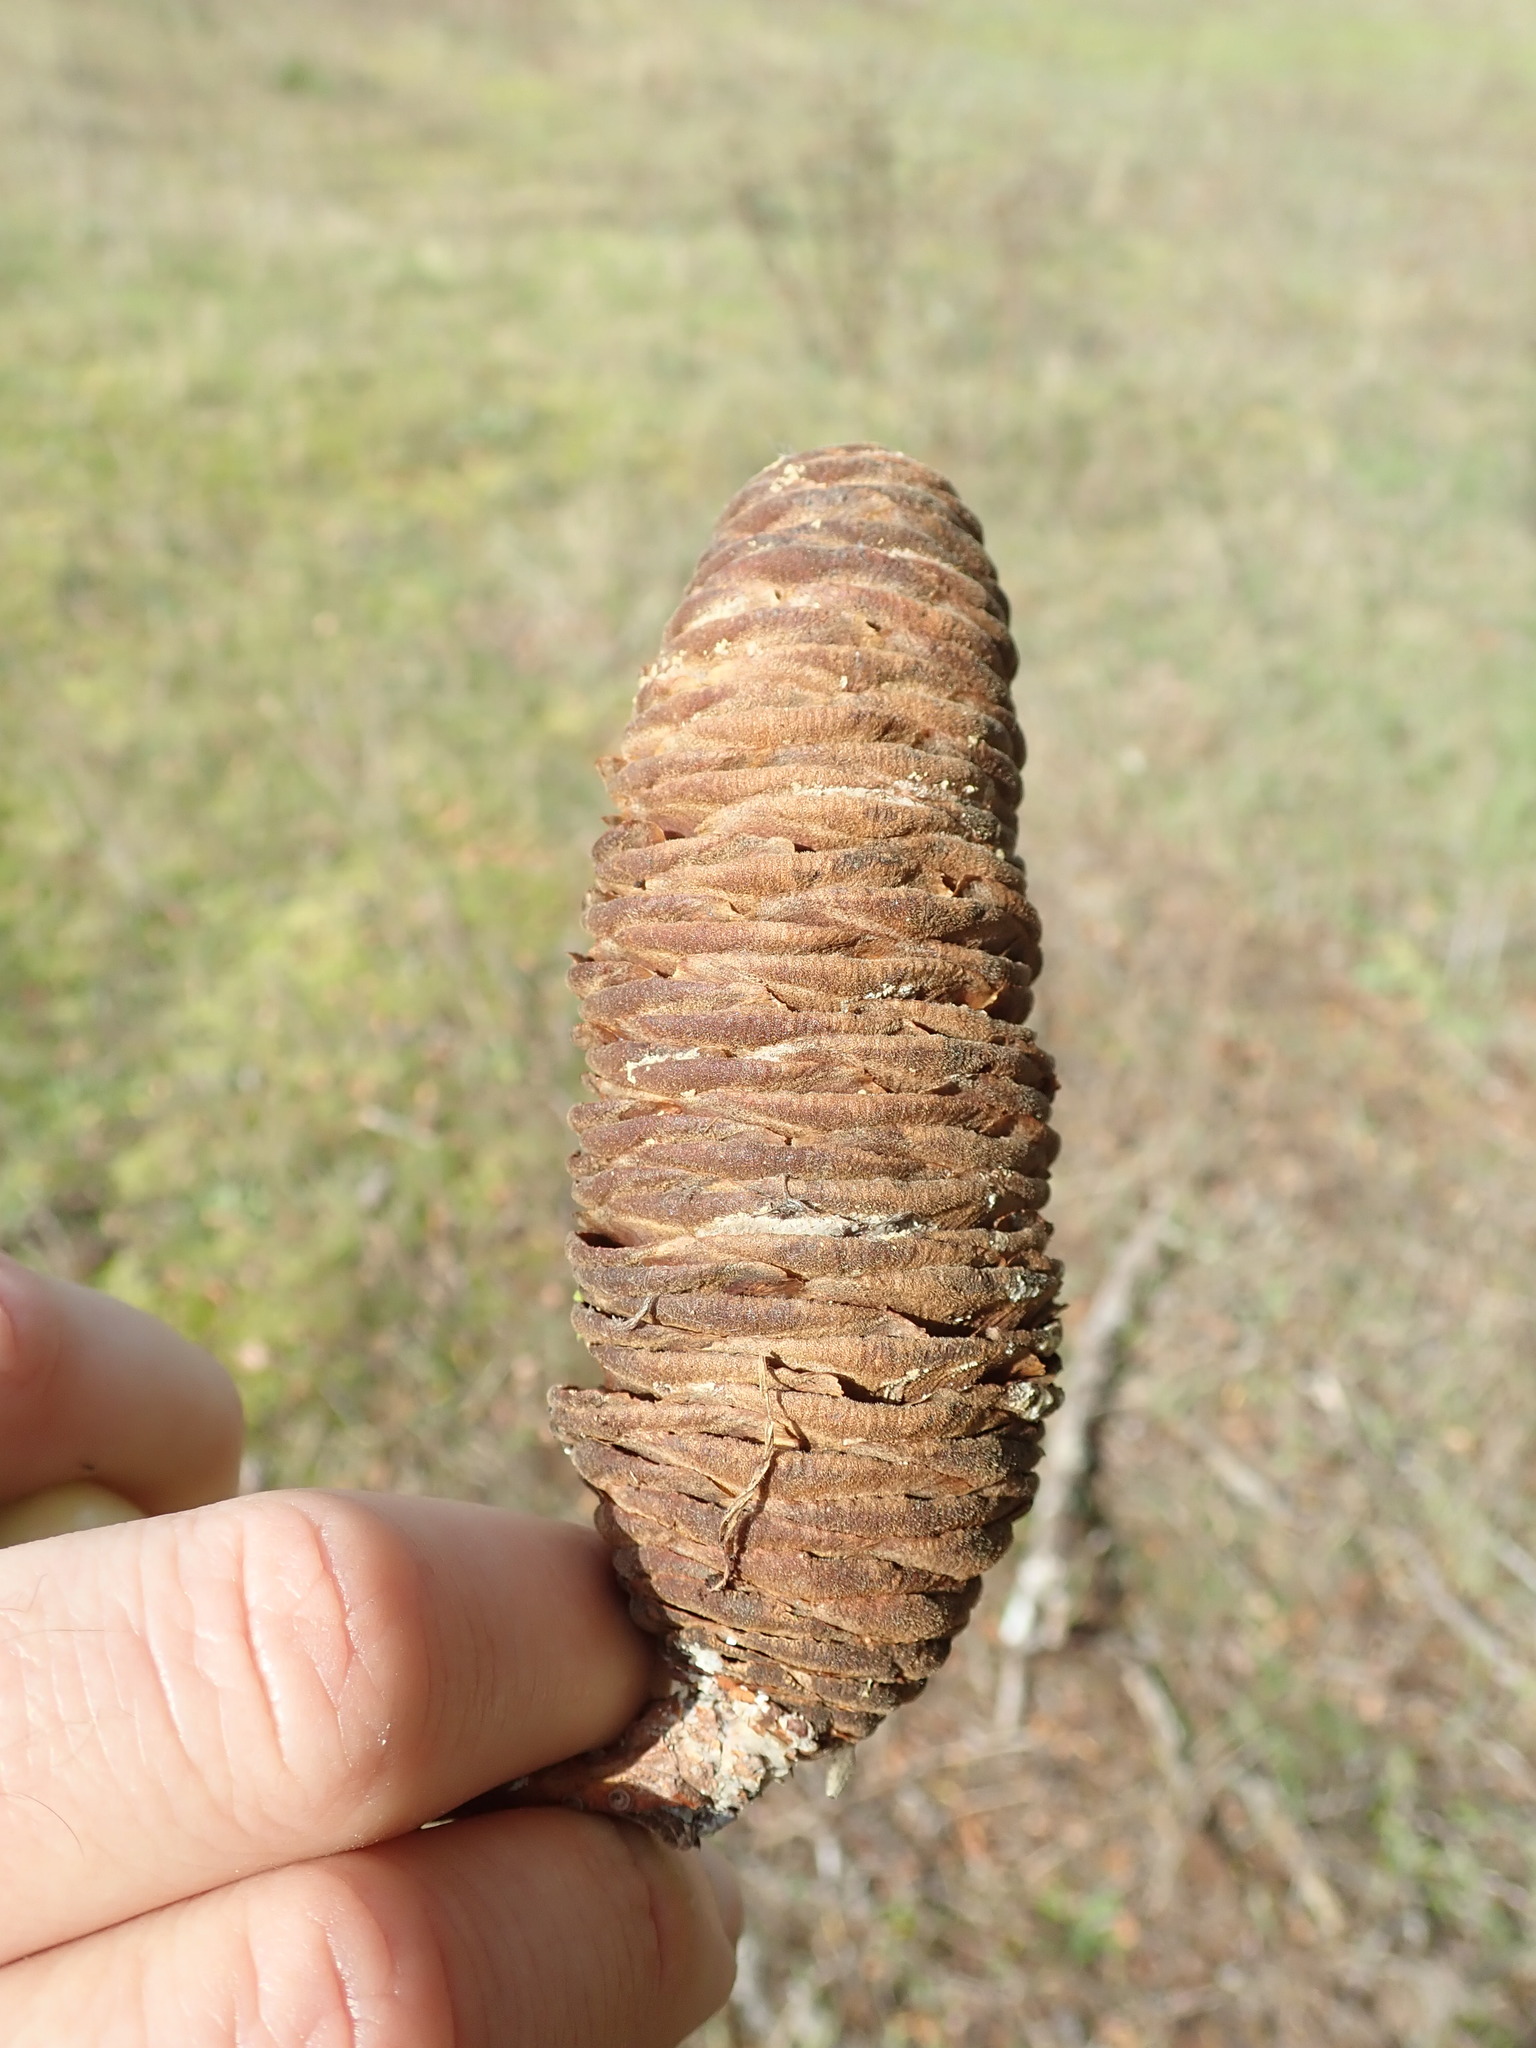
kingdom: Plantae
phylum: Tracheophyta
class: Pinopsida
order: Pinales
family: Pinaceae
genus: Abies
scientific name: Abies grandis
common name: Giant fir
